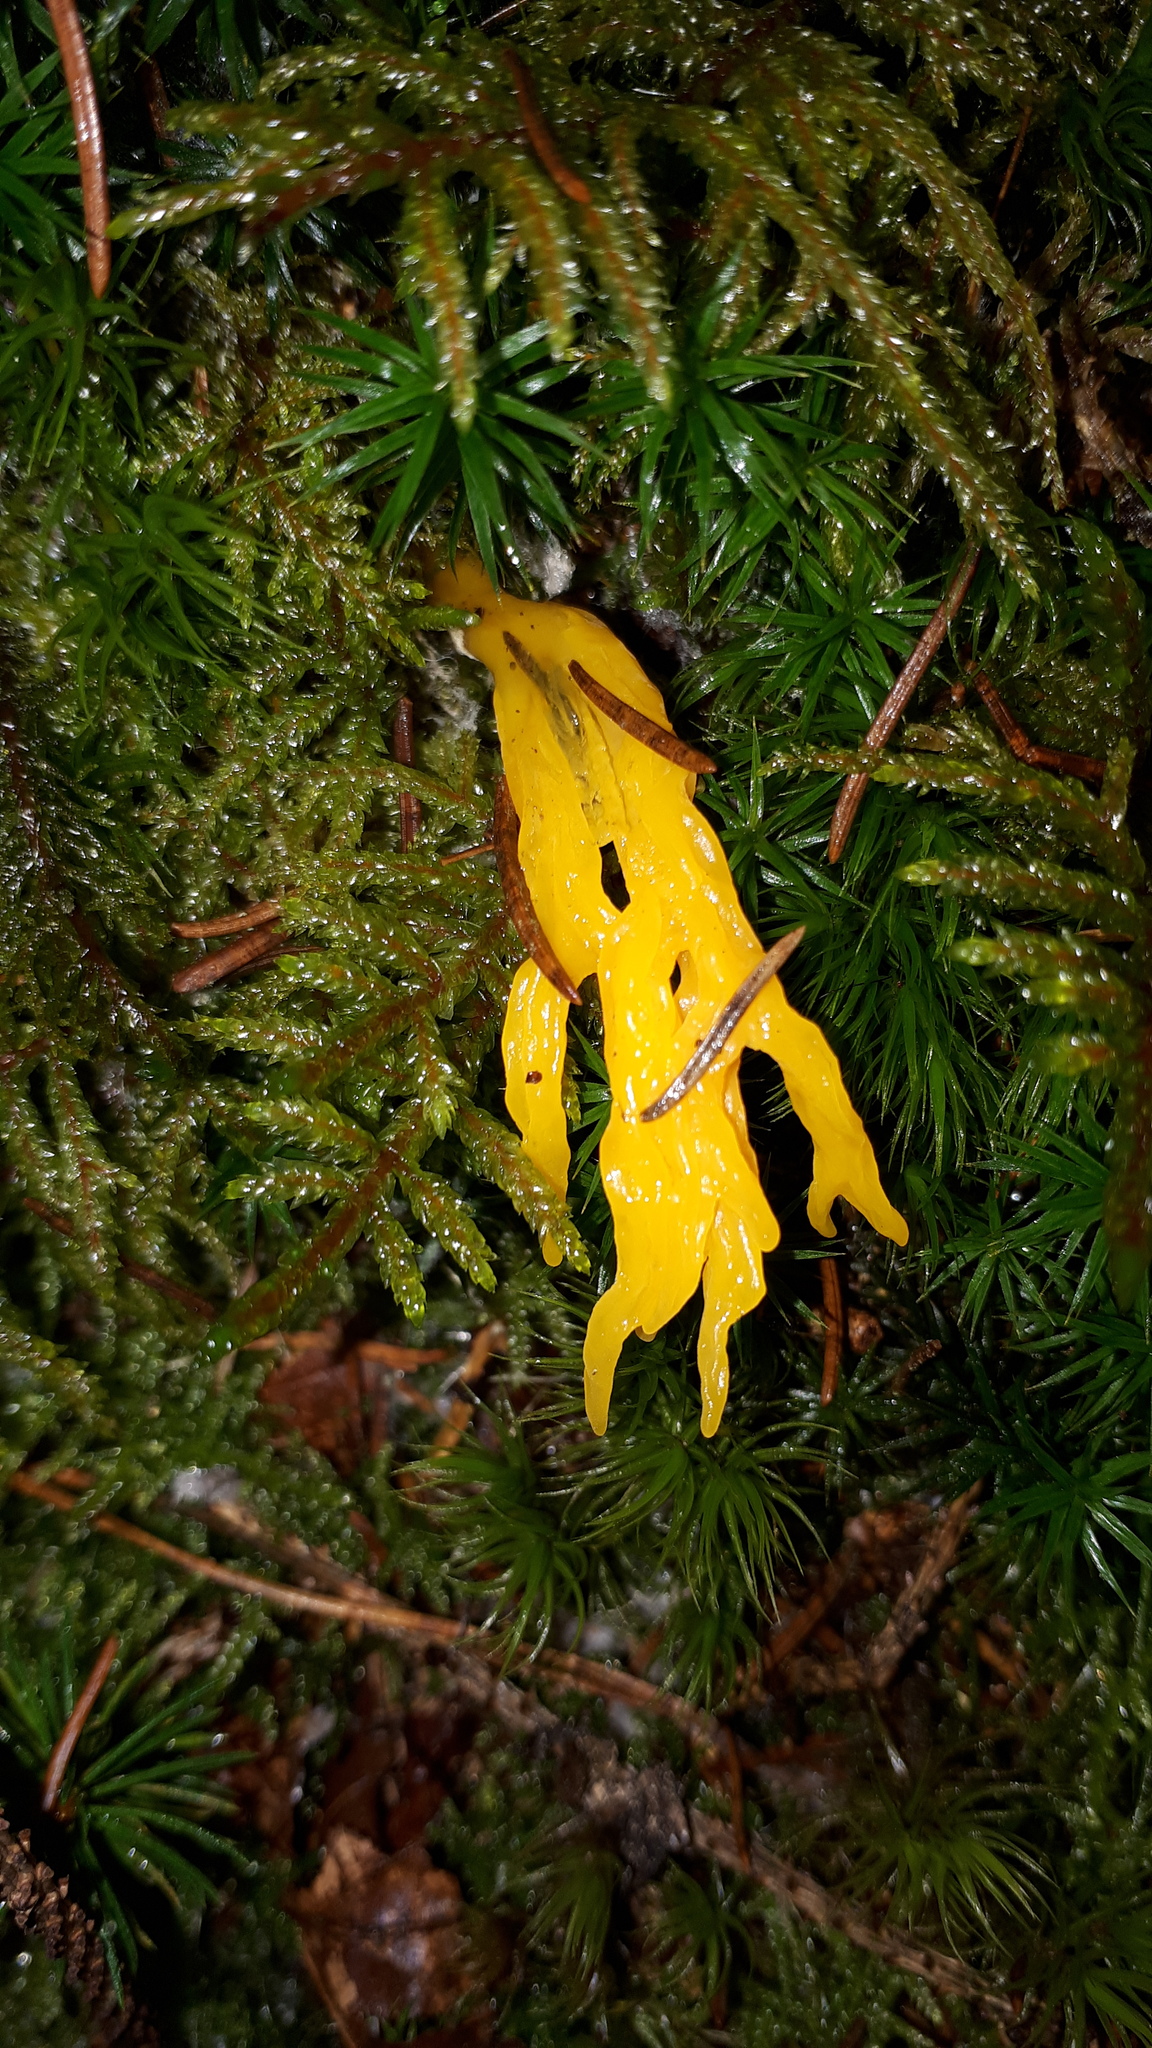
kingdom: Fungi
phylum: Basidiomycota
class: Dacrymycetes
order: Dacrymycetales
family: Dacrymycetaceae
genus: Calocera
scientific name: Calocera viscosa
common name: Yellow stagshorn
